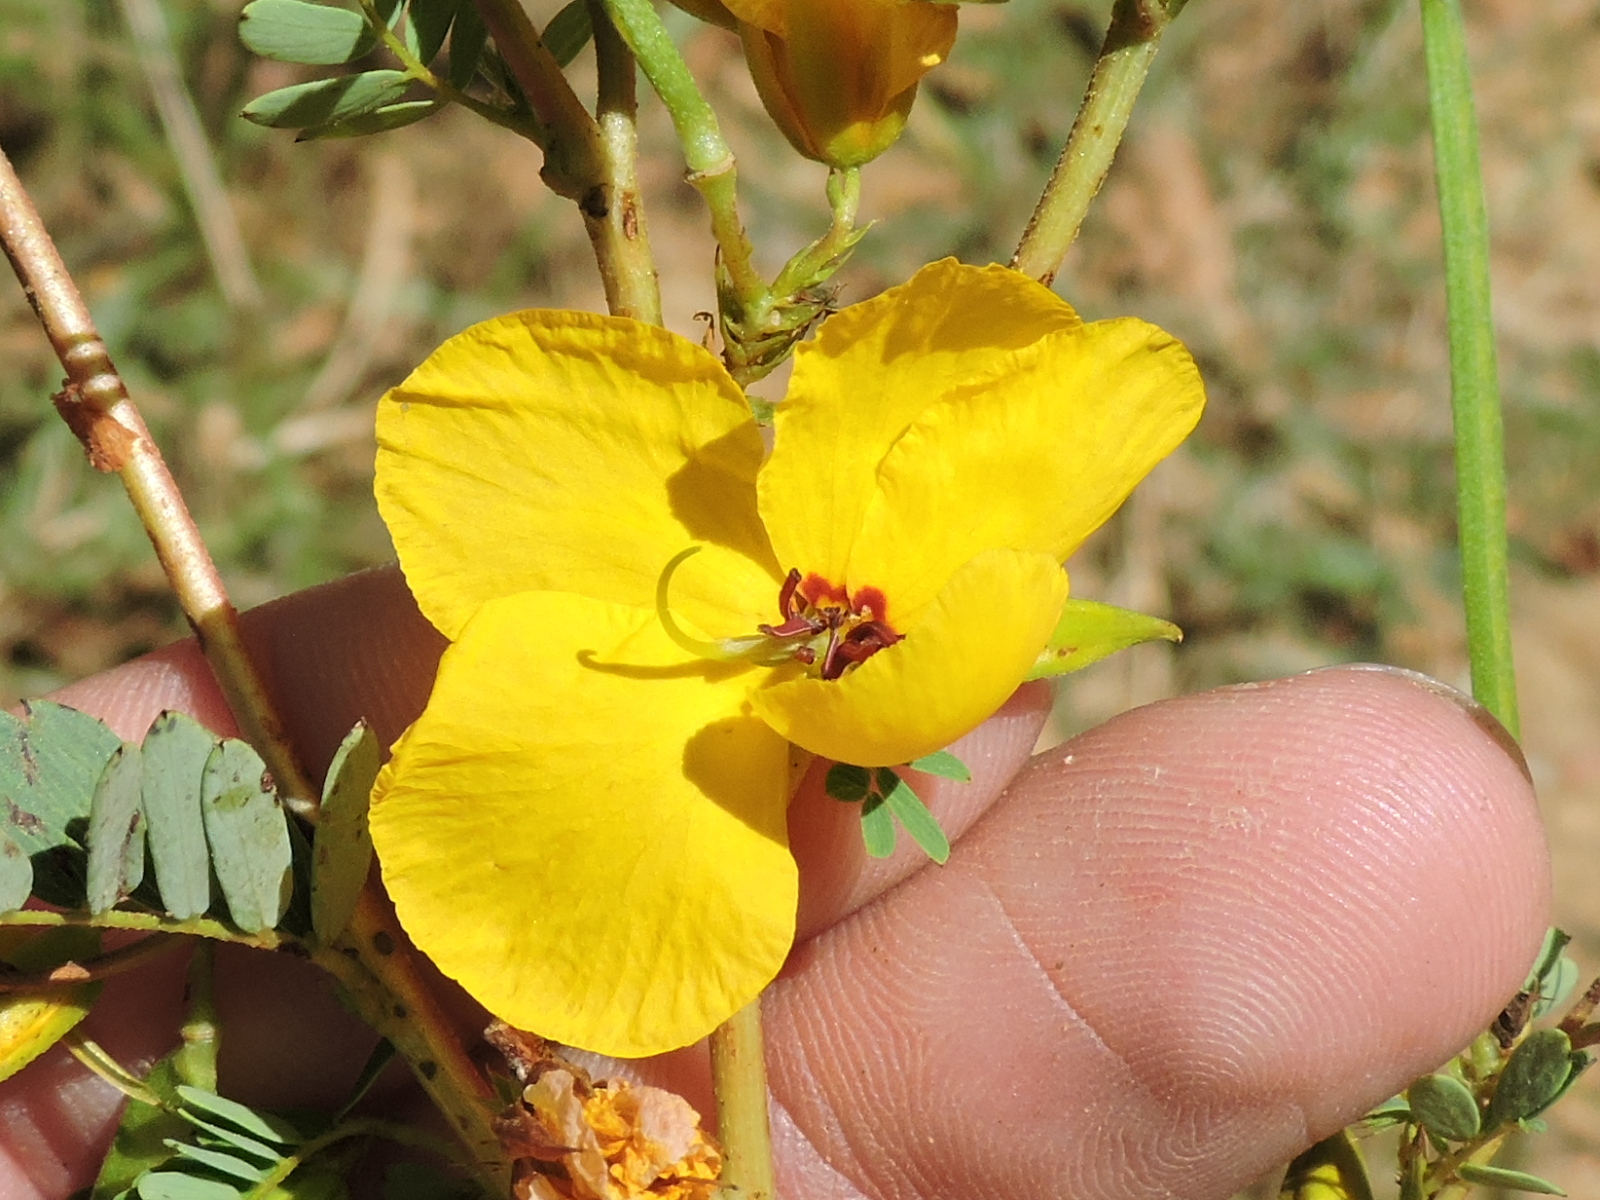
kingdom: Plantae
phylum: Tracheophyta
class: Magnoliopsida
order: Fabales
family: Fabaceae
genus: Chamaecrista
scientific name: Chamaecrista fasciculata
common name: Golden cassia
